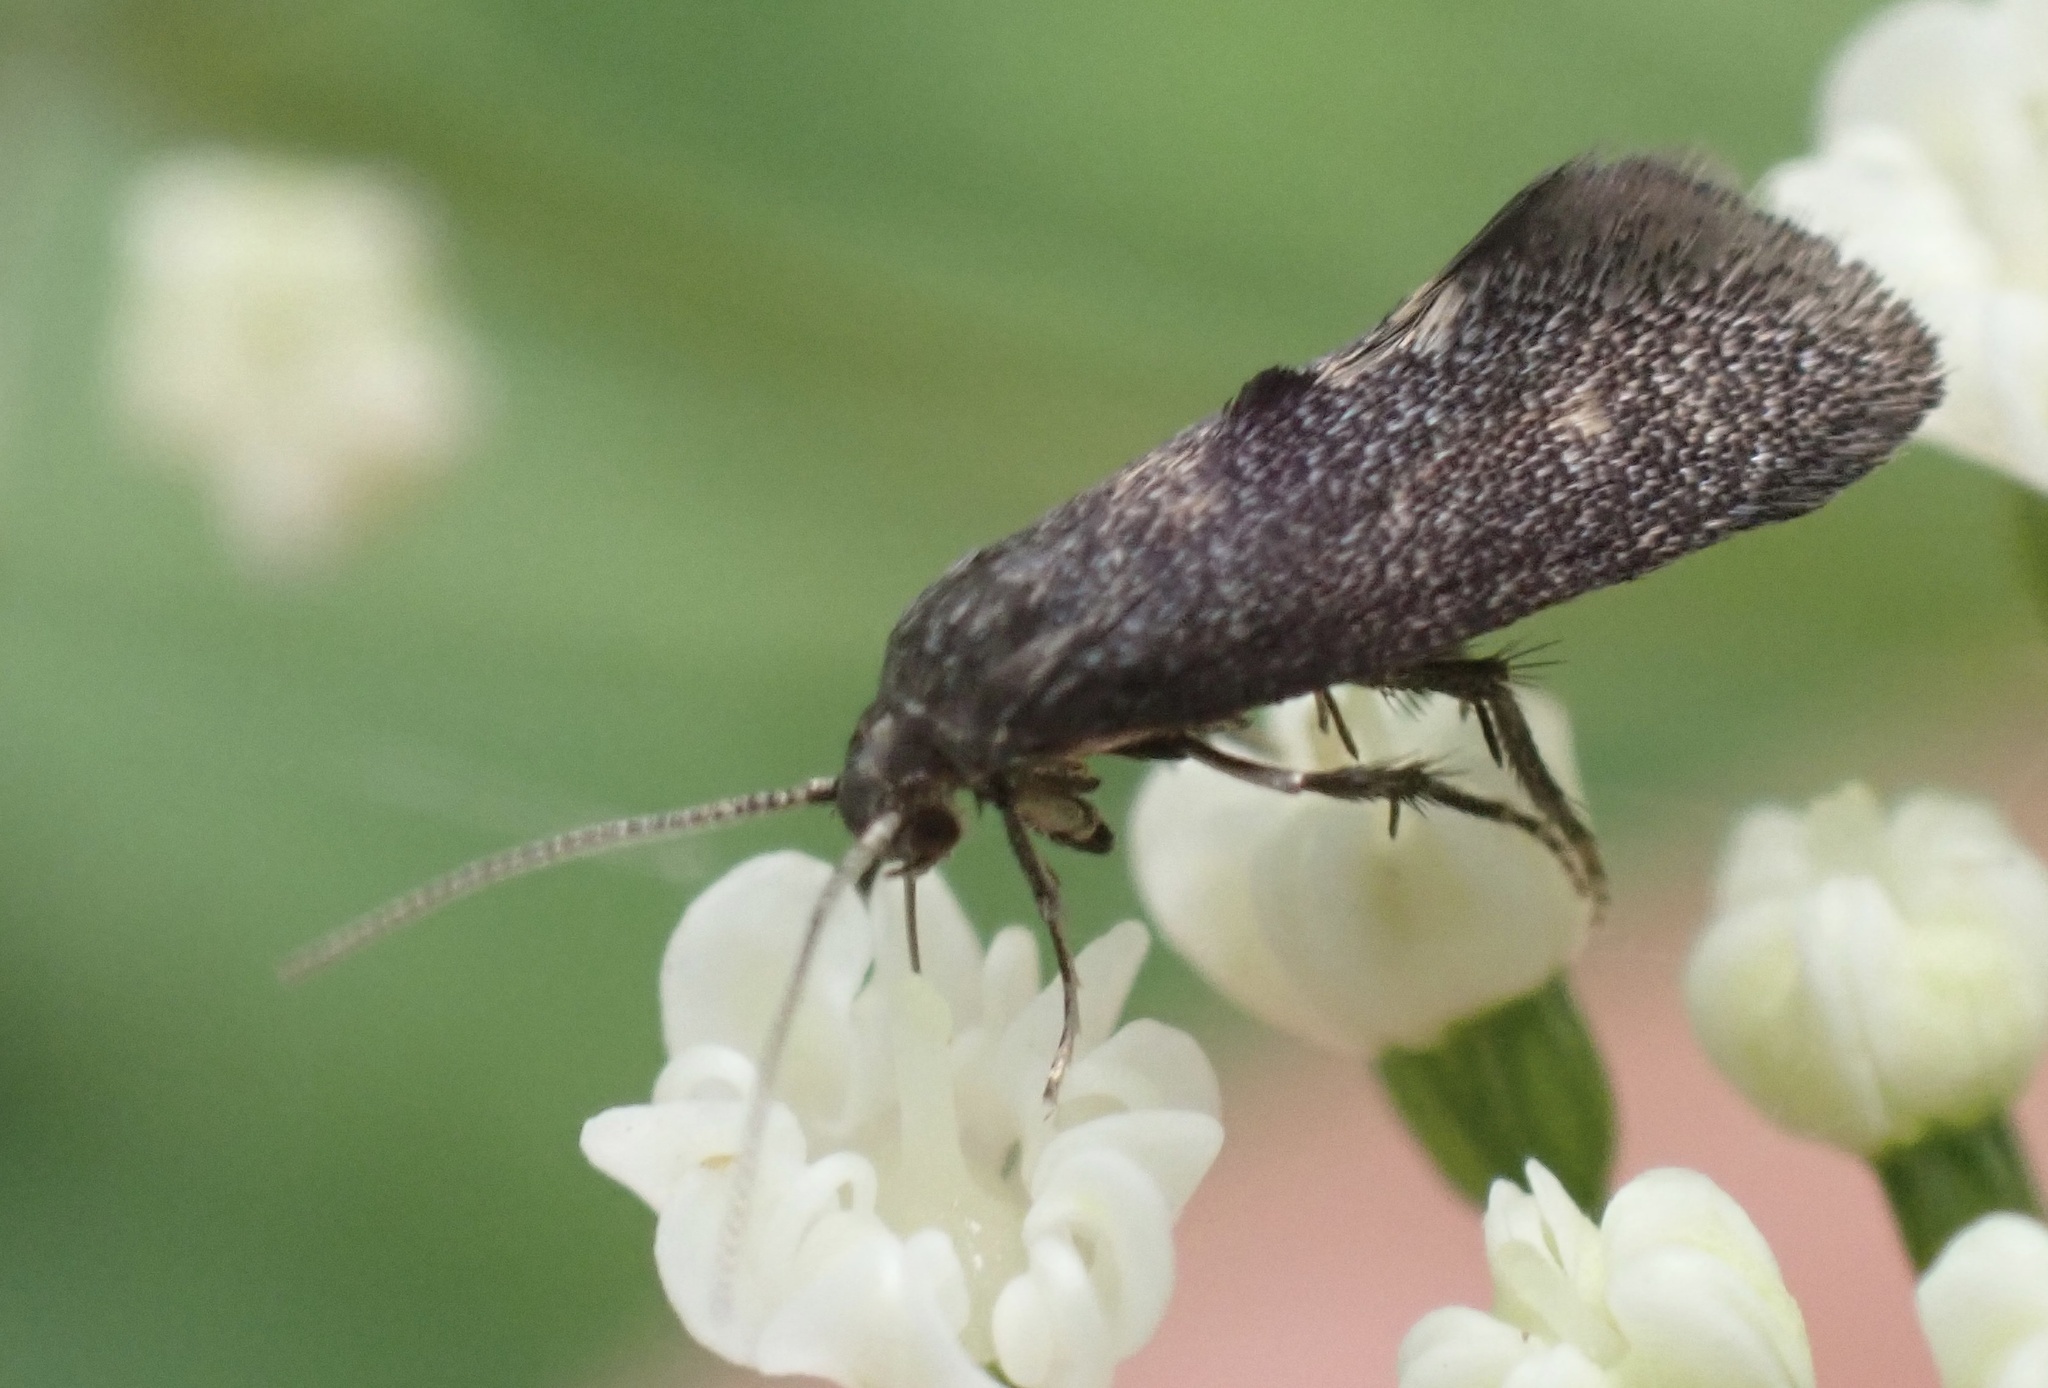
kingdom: Animalia
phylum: Arthropoda
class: Insecta
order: Lepidoptera
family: Epermeniidae
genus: Phaulernis
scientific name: Phaulernis dentella
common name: Scale-tooth lance-wing
